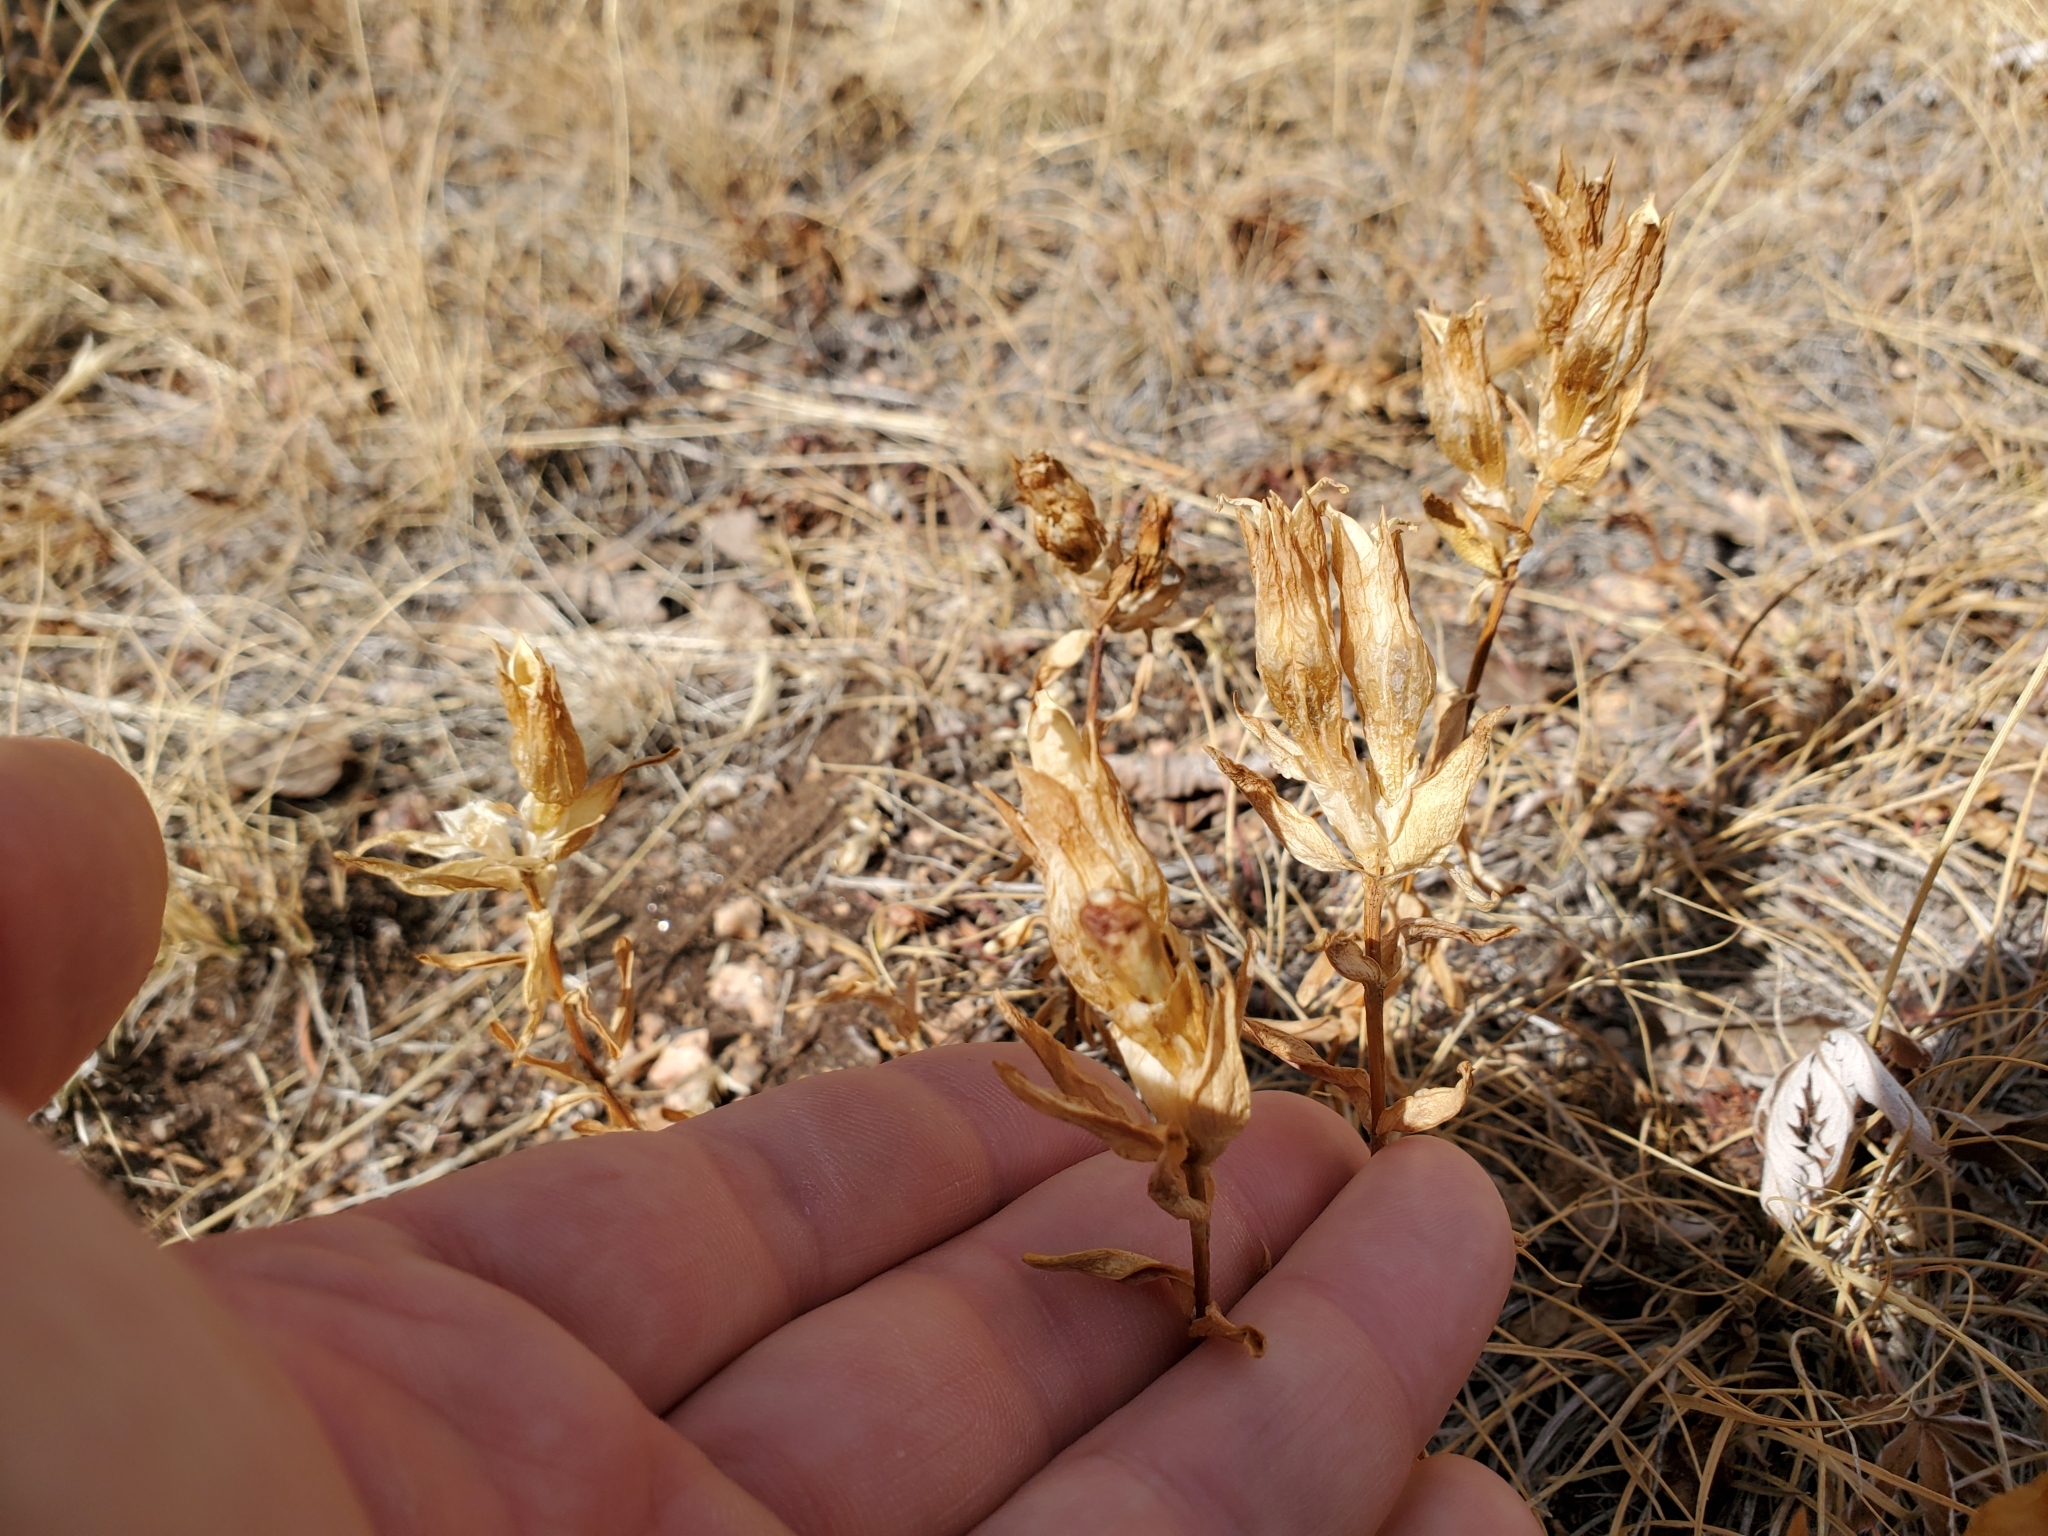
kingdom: Plantae
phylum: Tracheophyta
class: Magnoliopsida
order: Gentianales
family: Gentianaceae
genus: Gentiana
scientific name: Gentiana parryi
